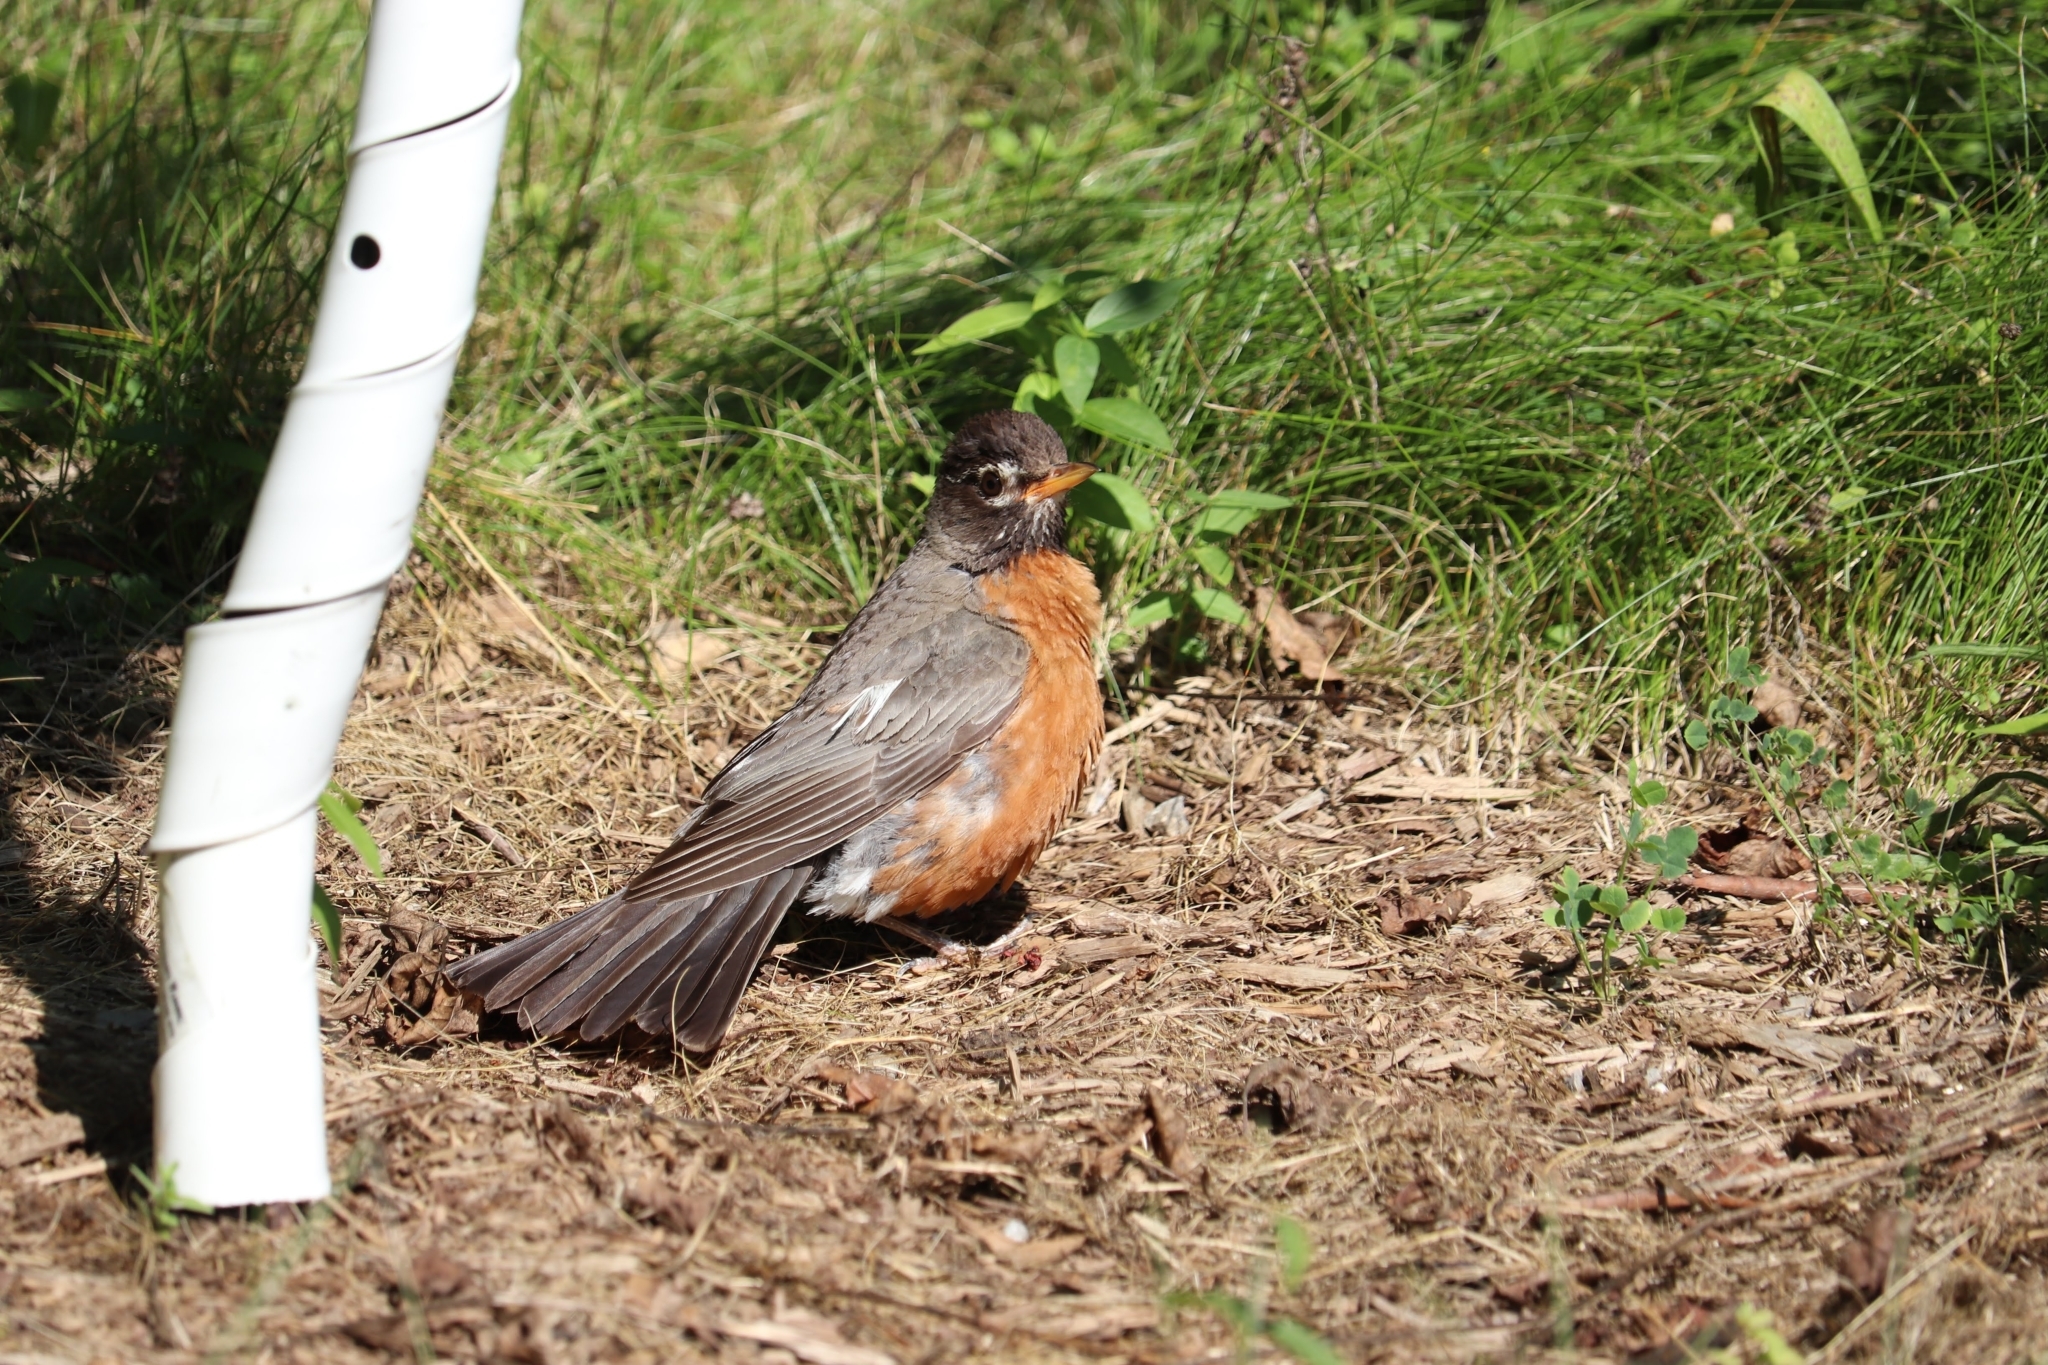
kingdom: Animalia
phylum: Chordata
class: Aves
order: Passeriformes
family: Turdidae
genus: Turdus
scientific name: Turdus migratorius
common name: American robin
